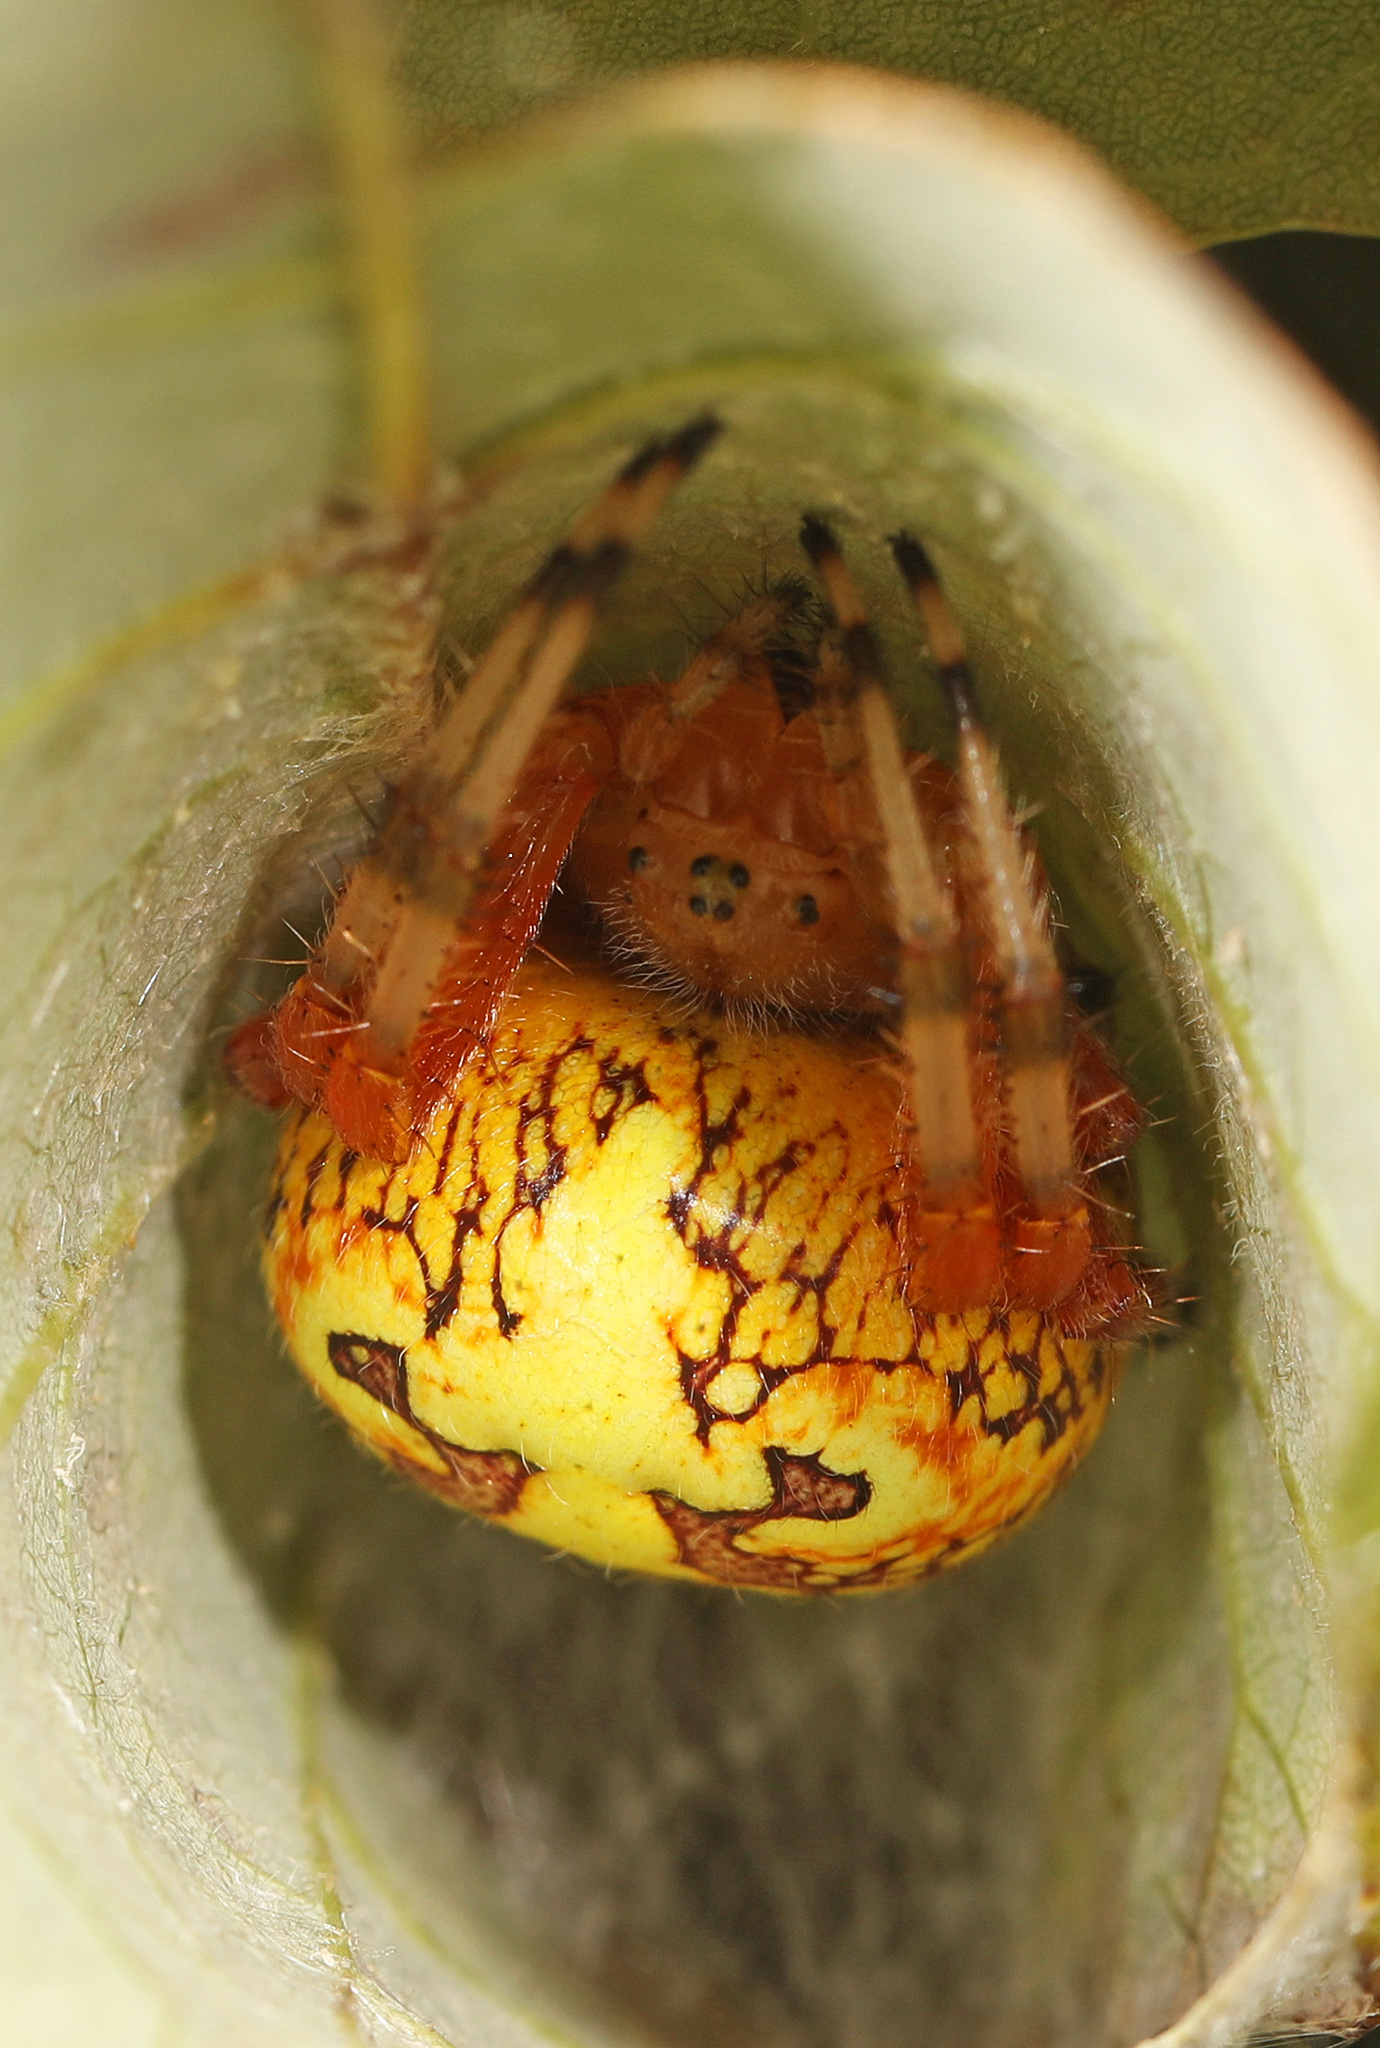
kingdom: Animalia
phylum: Arthropoda
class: Arachnida
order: Araneae
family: Araneidae
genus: Araneus
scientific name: Araneus marmoreus
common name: Marbled orbweaver
